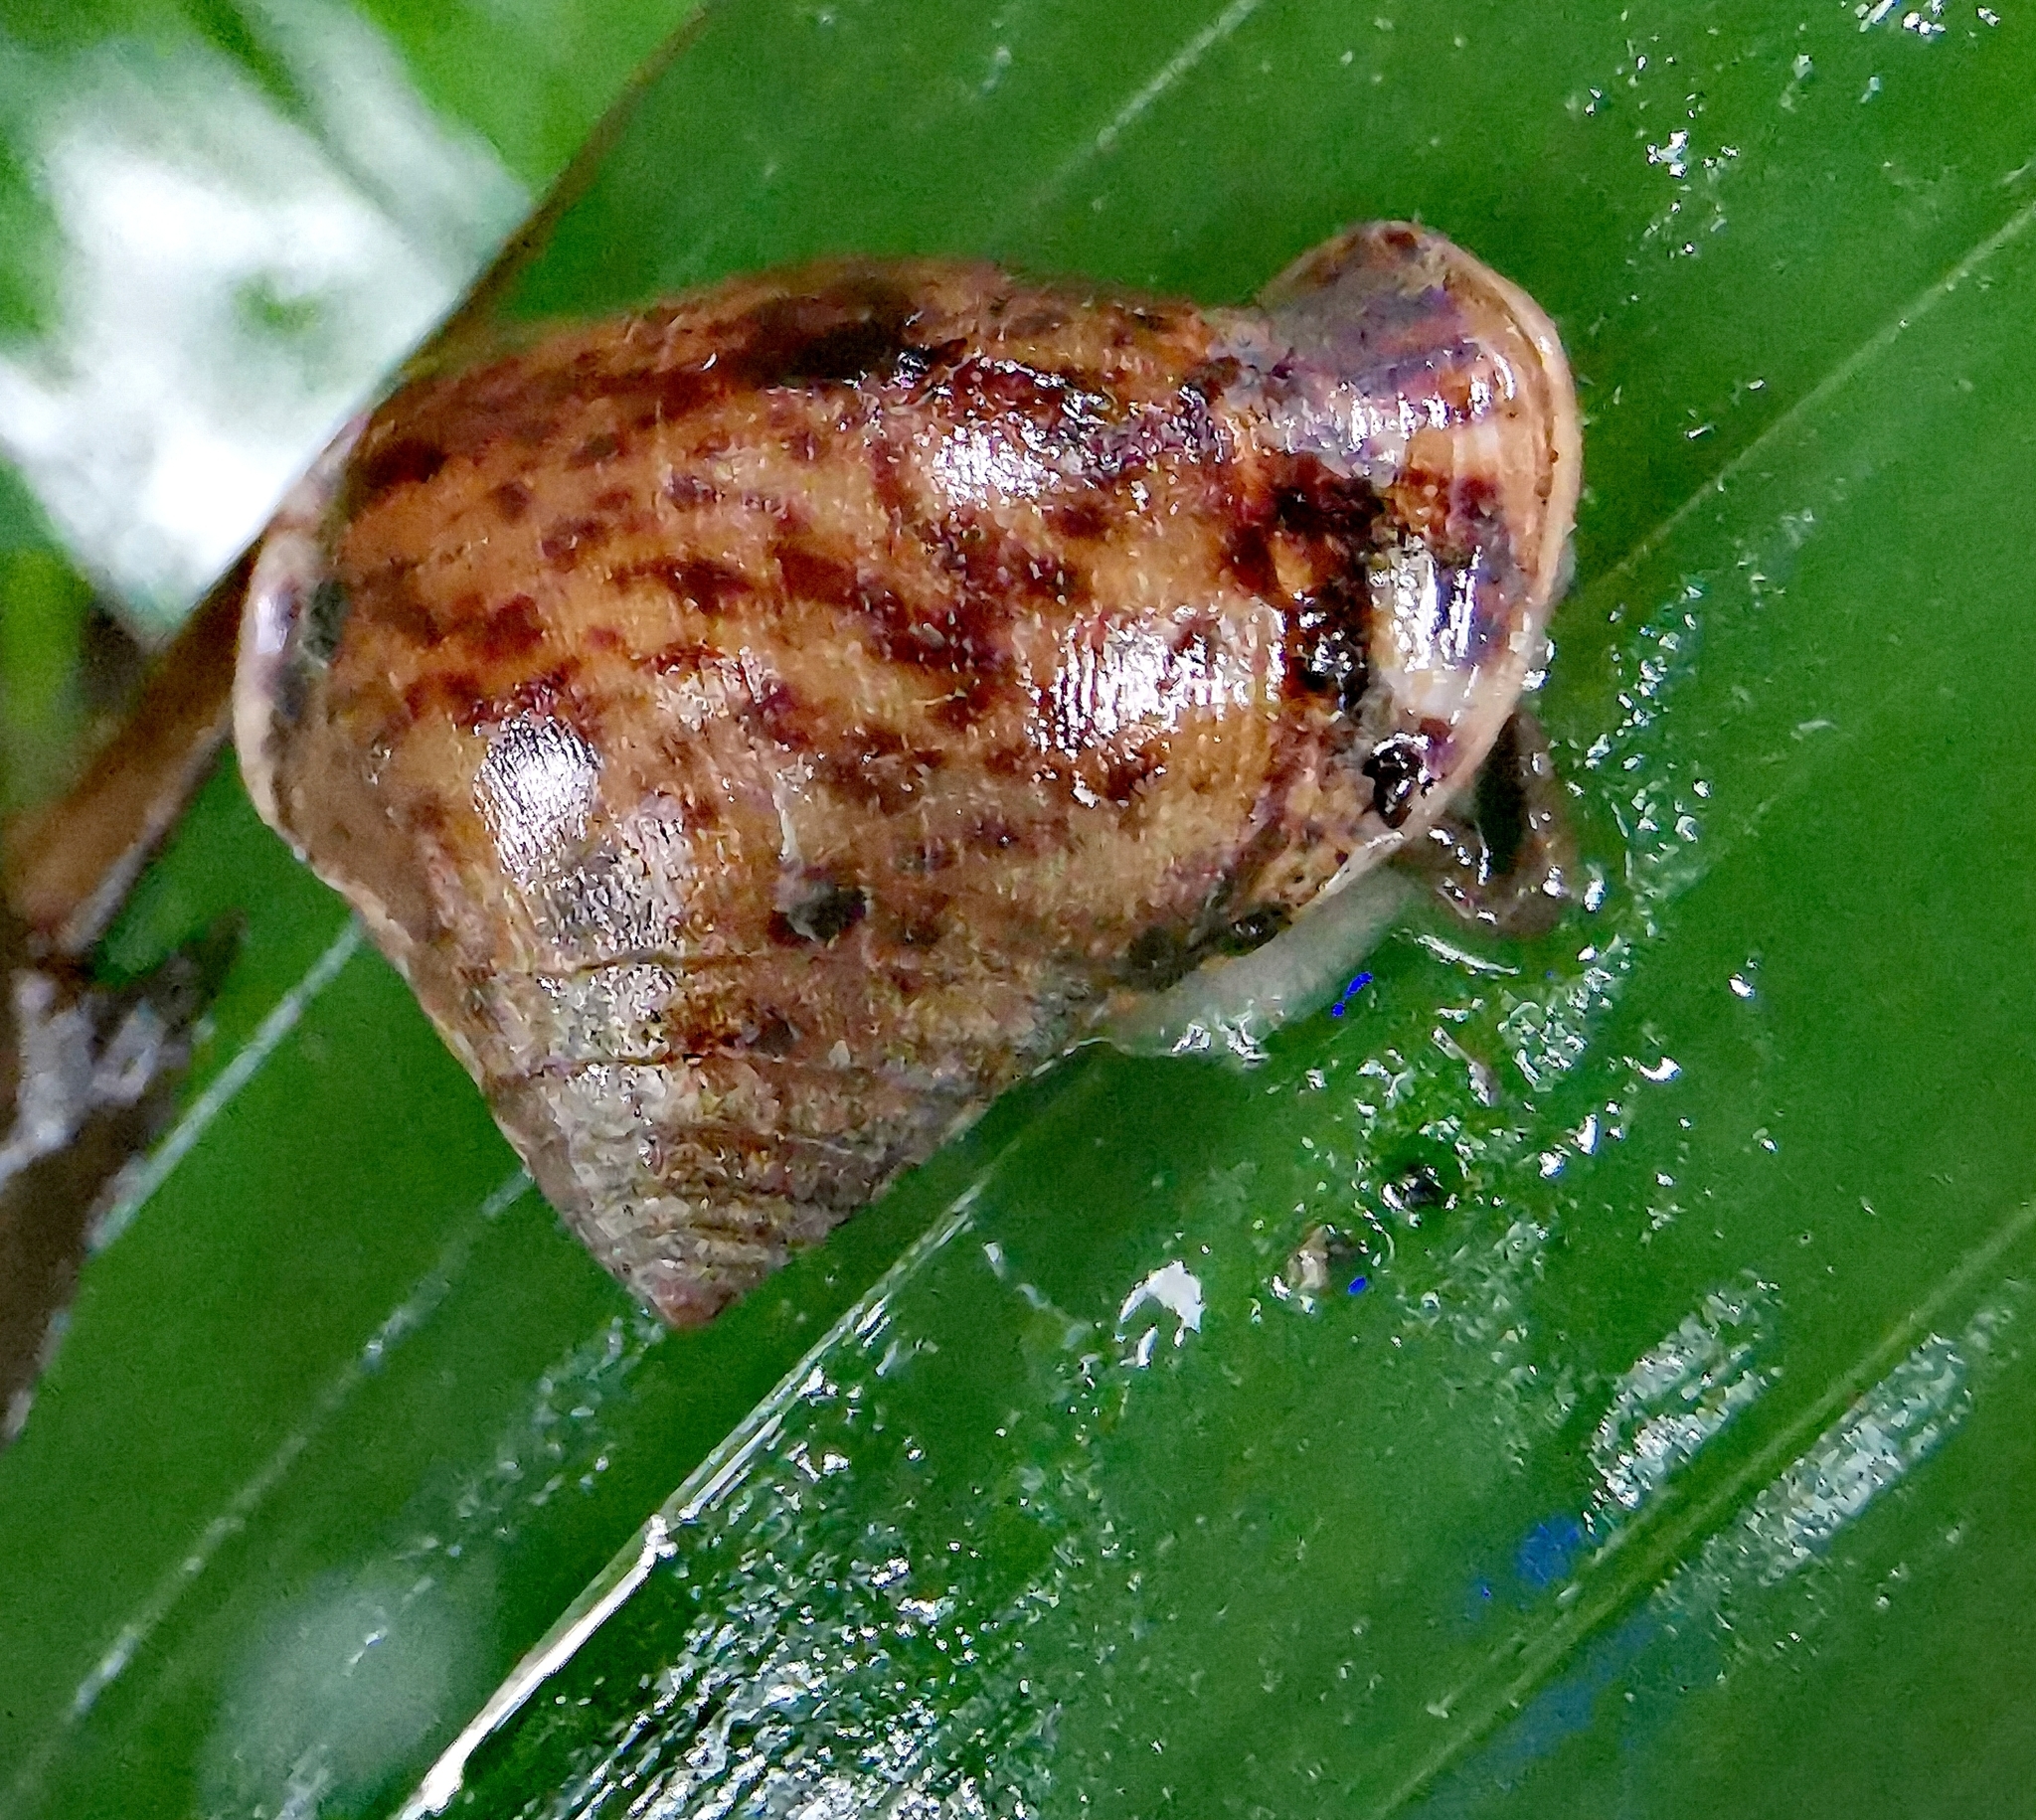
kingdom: Animalia
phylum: Mollusca
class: Gastropoda
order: Ellobiida
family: Ellobiidae
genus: Pythia
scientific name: Pythia trigona
